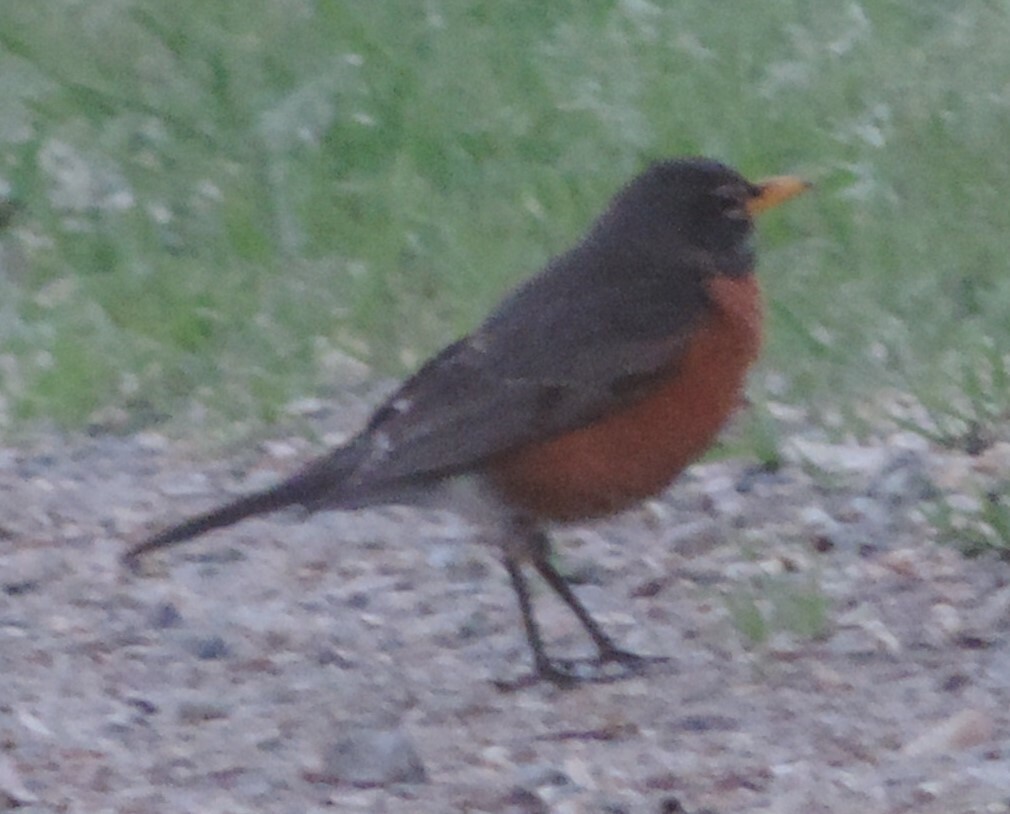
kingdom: Animalia
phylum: Chordata
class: Aves
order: Passeriformes
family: Turdidae
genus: Turdus
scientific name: Turdus migratorius
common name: American robin
